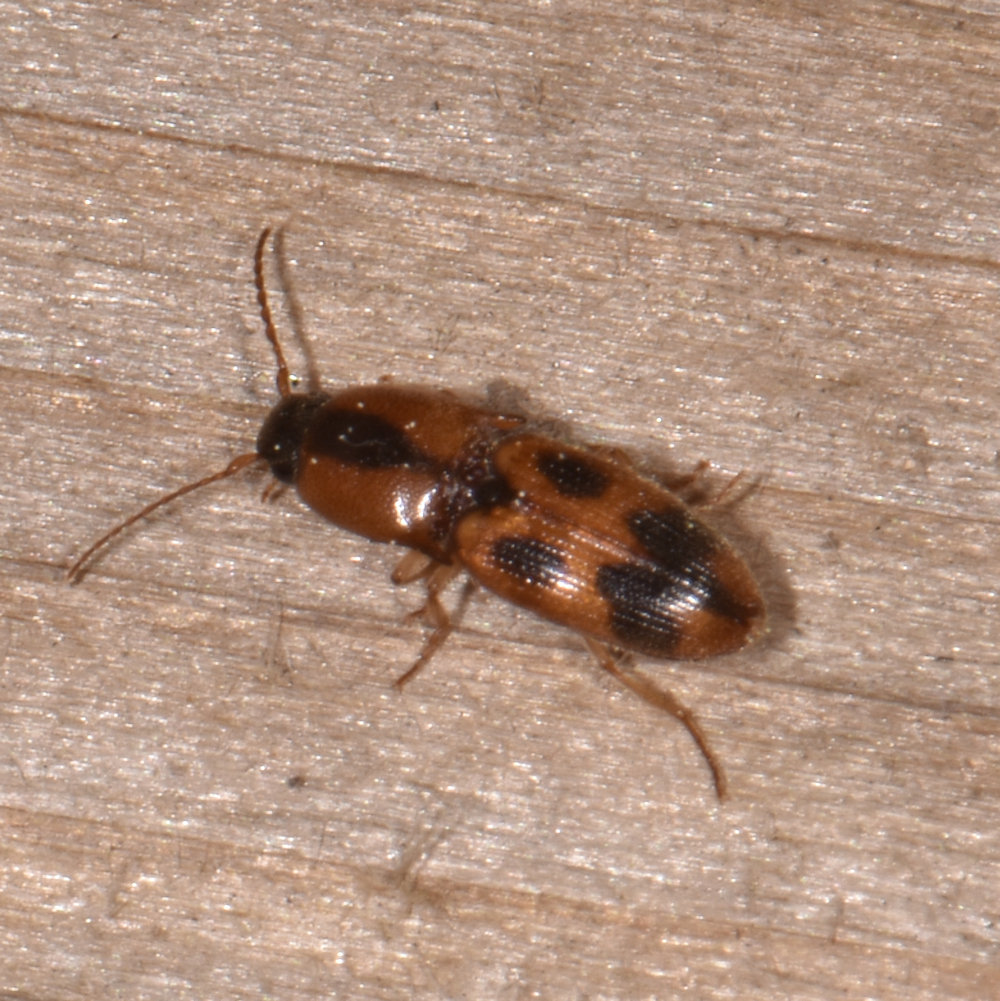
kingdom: Animalia
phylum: Arthropoda
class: Insecta
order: Coleoptera
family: Elateridae
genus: Aeolus
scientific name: Aeolus mellillus
